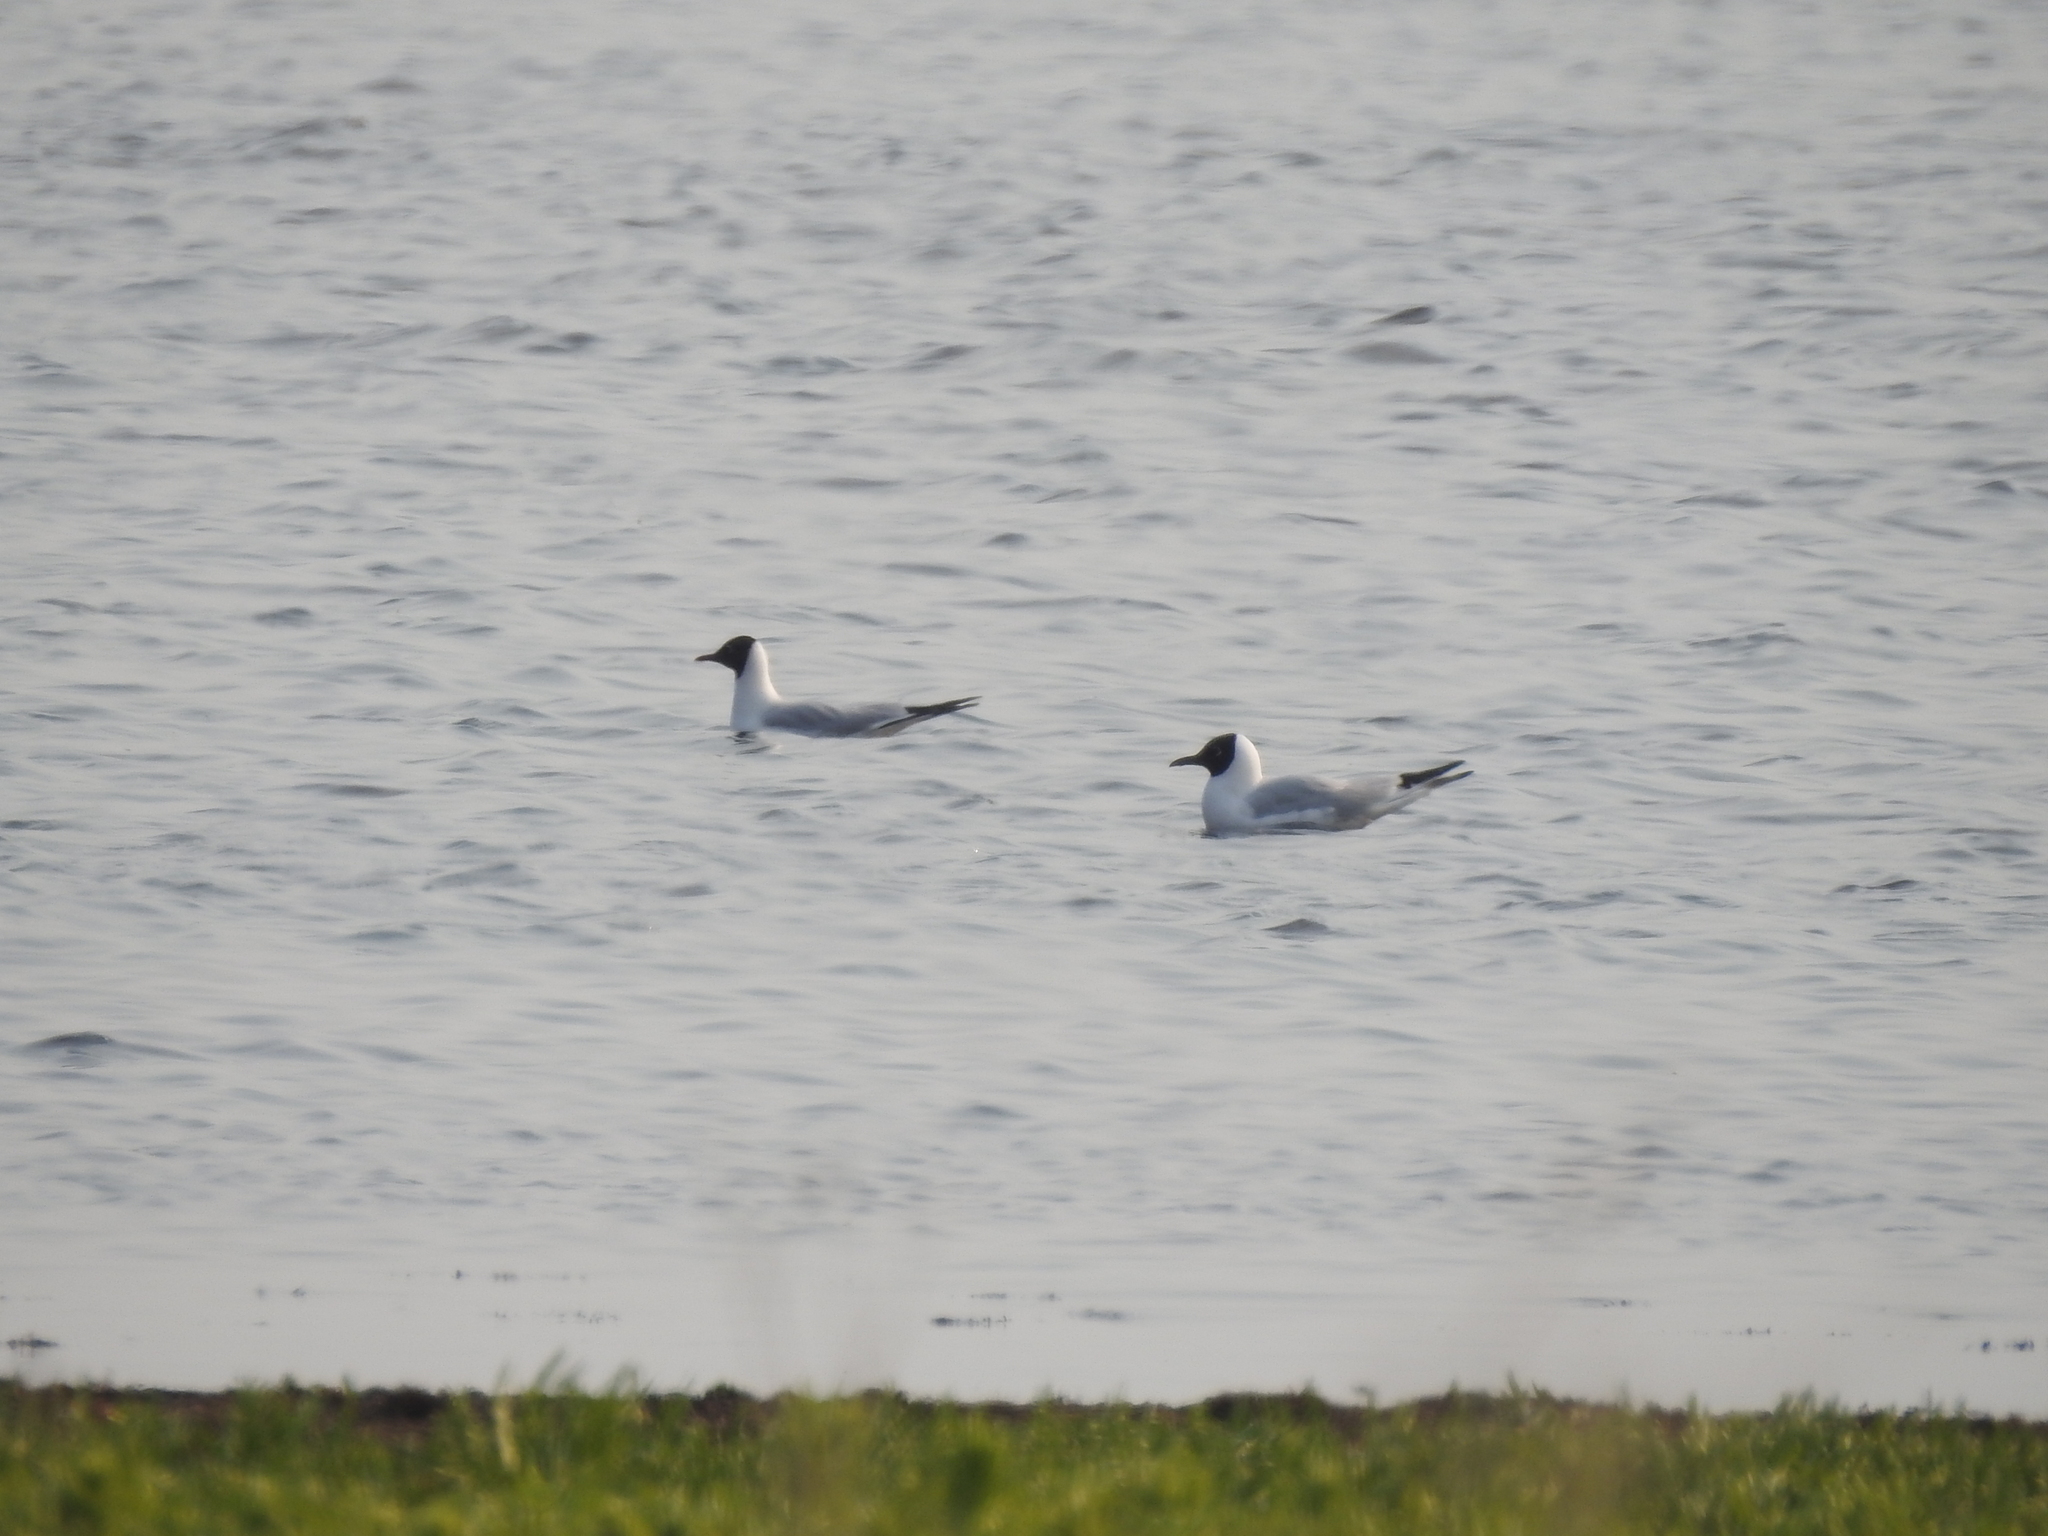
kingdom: Animalia
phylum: Chordata
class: Aves
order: Charadriiformes
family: Laridae
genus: Chroicocephalus
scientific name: Chroicocephalus ridibundus
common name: Black-headed gull
